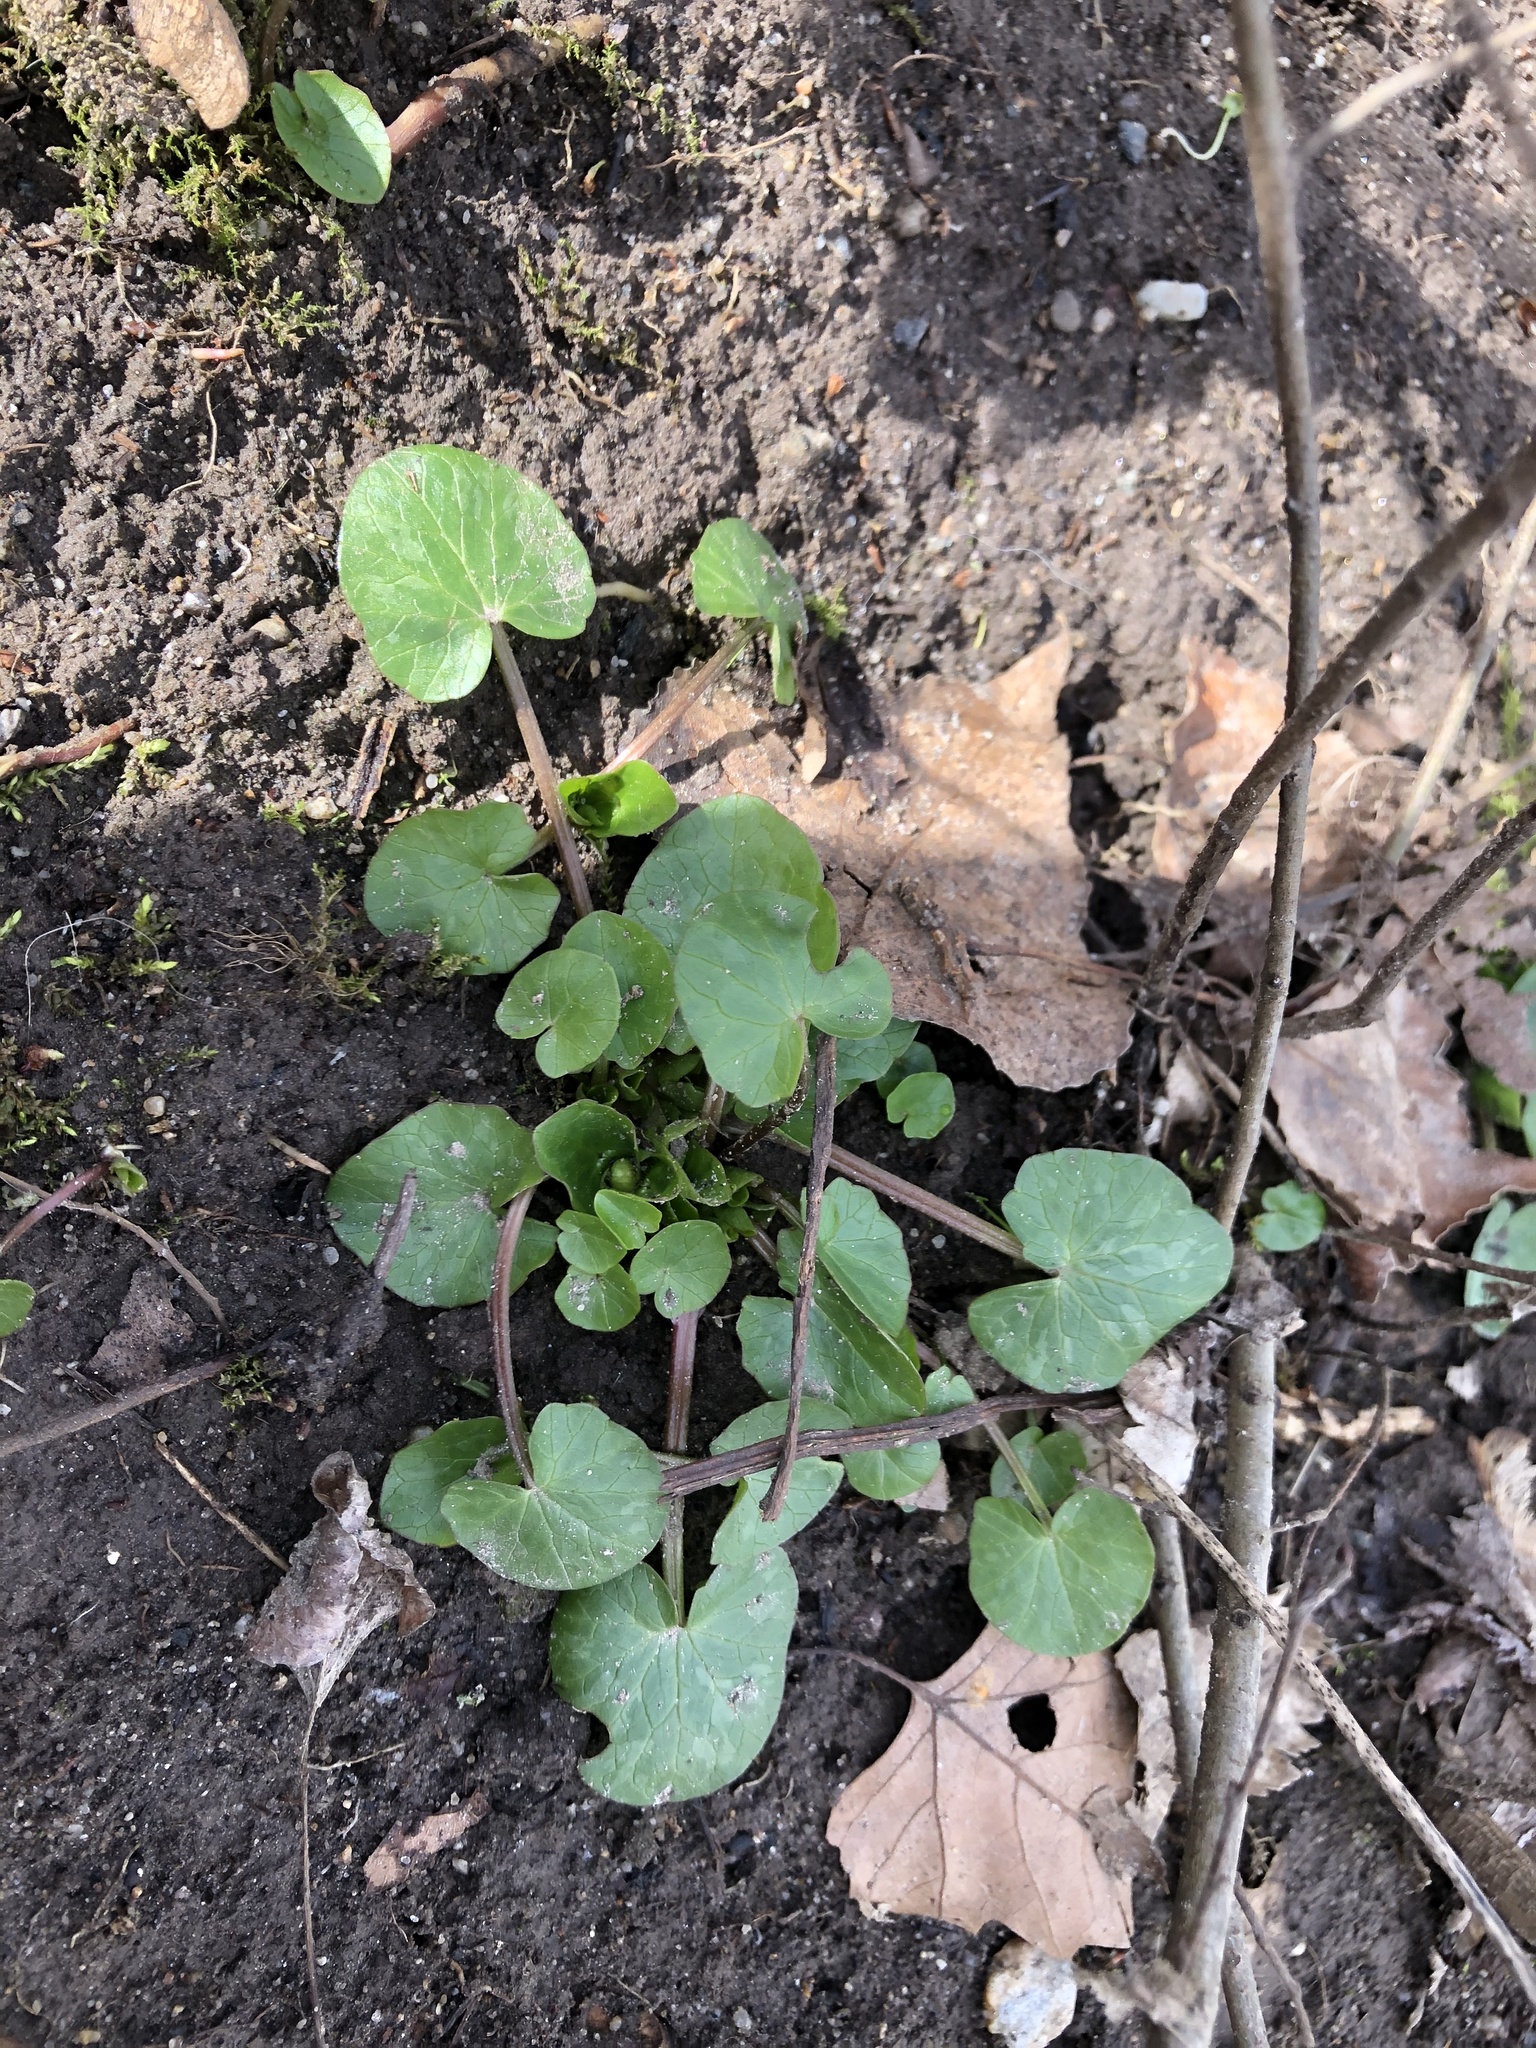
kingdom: Plantae
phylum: Tracheophyta
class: Magnoliopsida
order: Ranunculales
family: Ranunculaceae
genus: Ficaria
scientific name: Ficaria verna
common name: Lesser celandine
